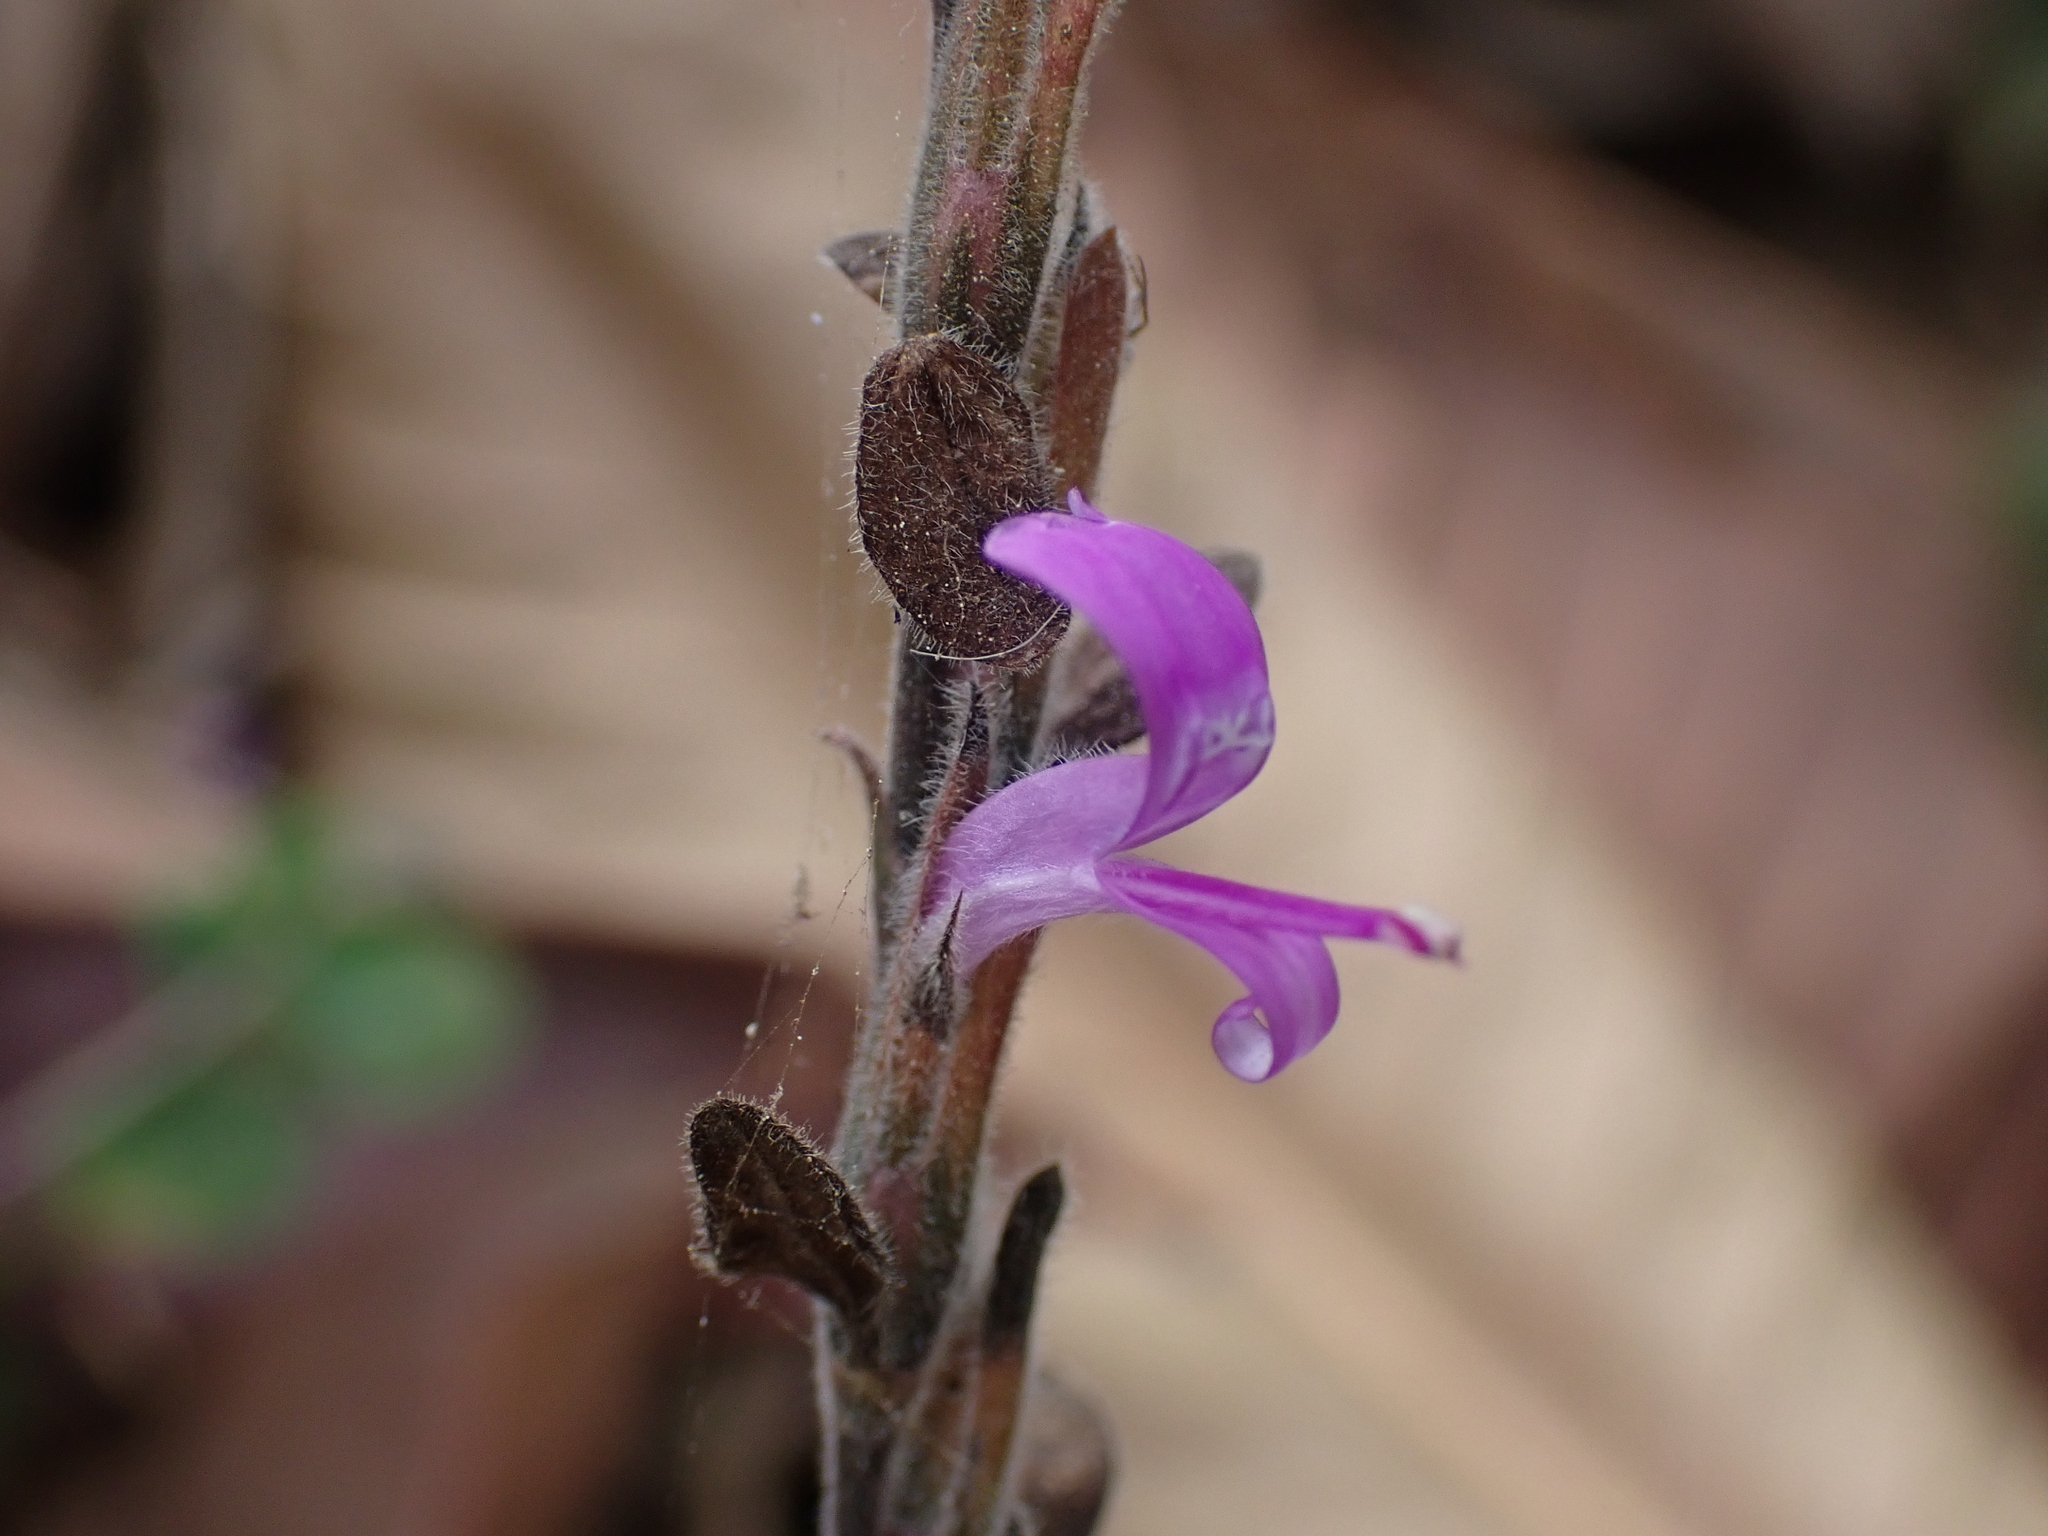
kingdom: Plantae
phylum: Tracheophyta
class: Magnoliopsida
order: Lamiales
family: Acanthaceae
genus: Hypoestes
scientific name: Hypoestes phyllostachya
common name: Polkadot-plant
